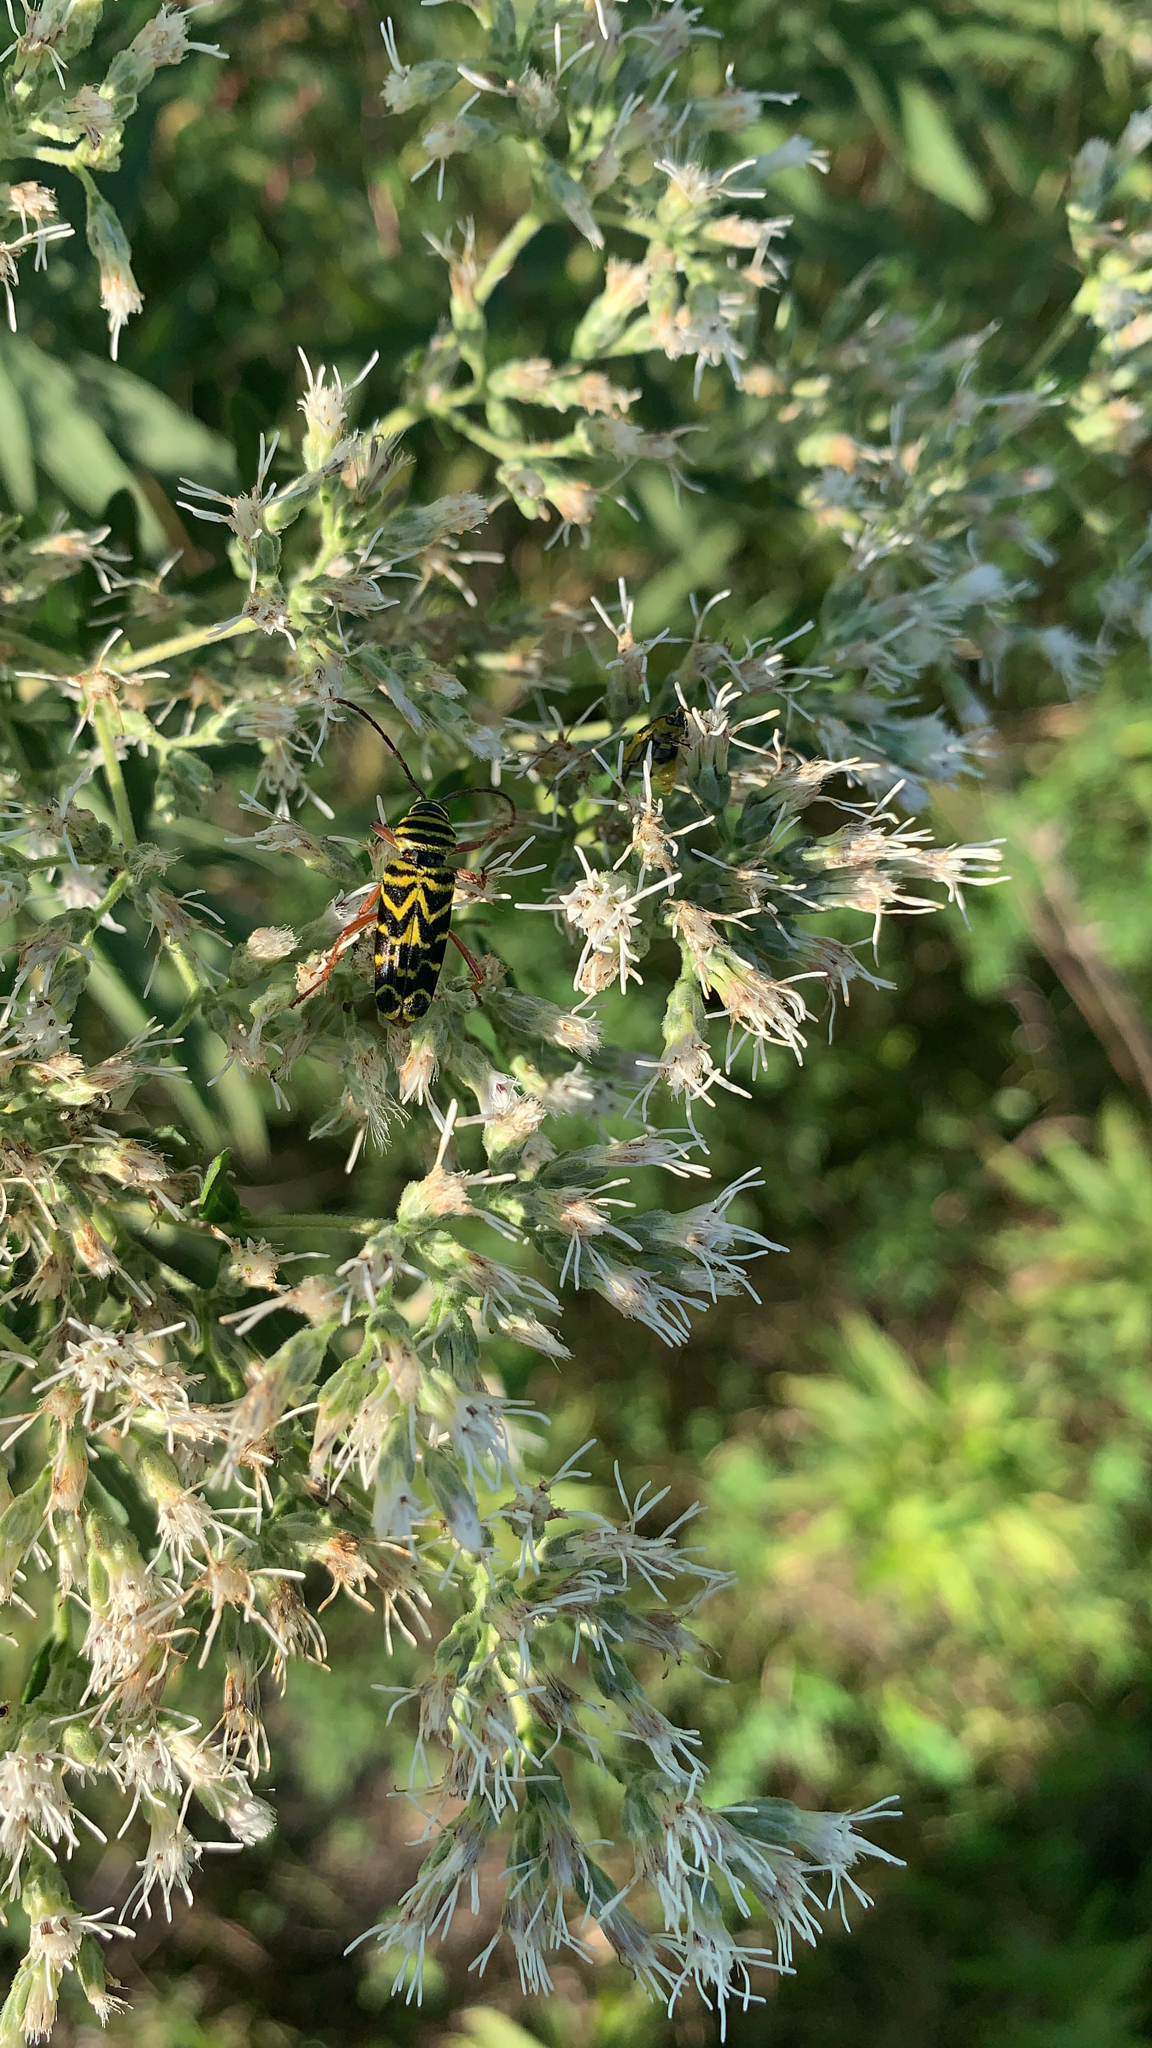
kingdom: Animalia
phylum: Arthropoda
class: Insecta
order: Coleoptera
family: Cerambycidae
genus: Megacyllene
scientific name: Megacyllene robiniae
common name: Locust borer
